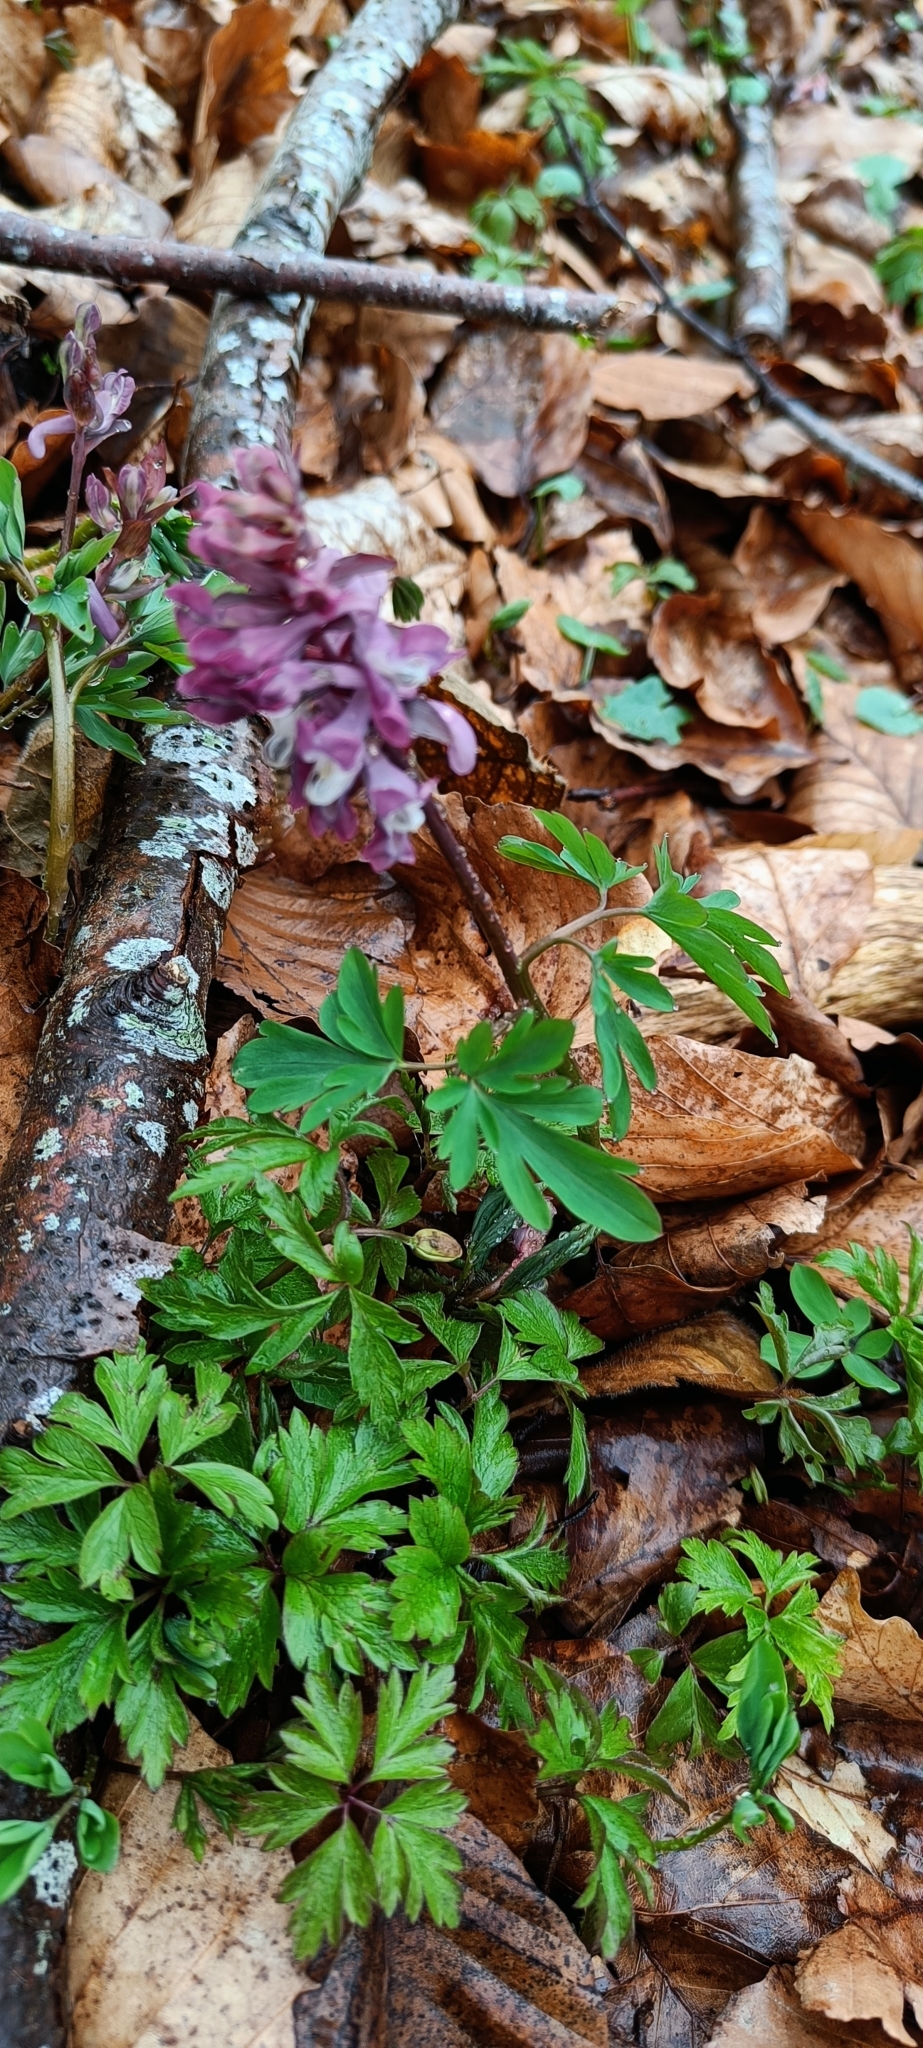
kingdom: Plantae
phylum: Tracheophyta
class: Magnoliopsida
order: Ranunculales
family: Papaveraceae
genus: Corydalis
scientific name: Corydalis cava
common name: Hollowroot
